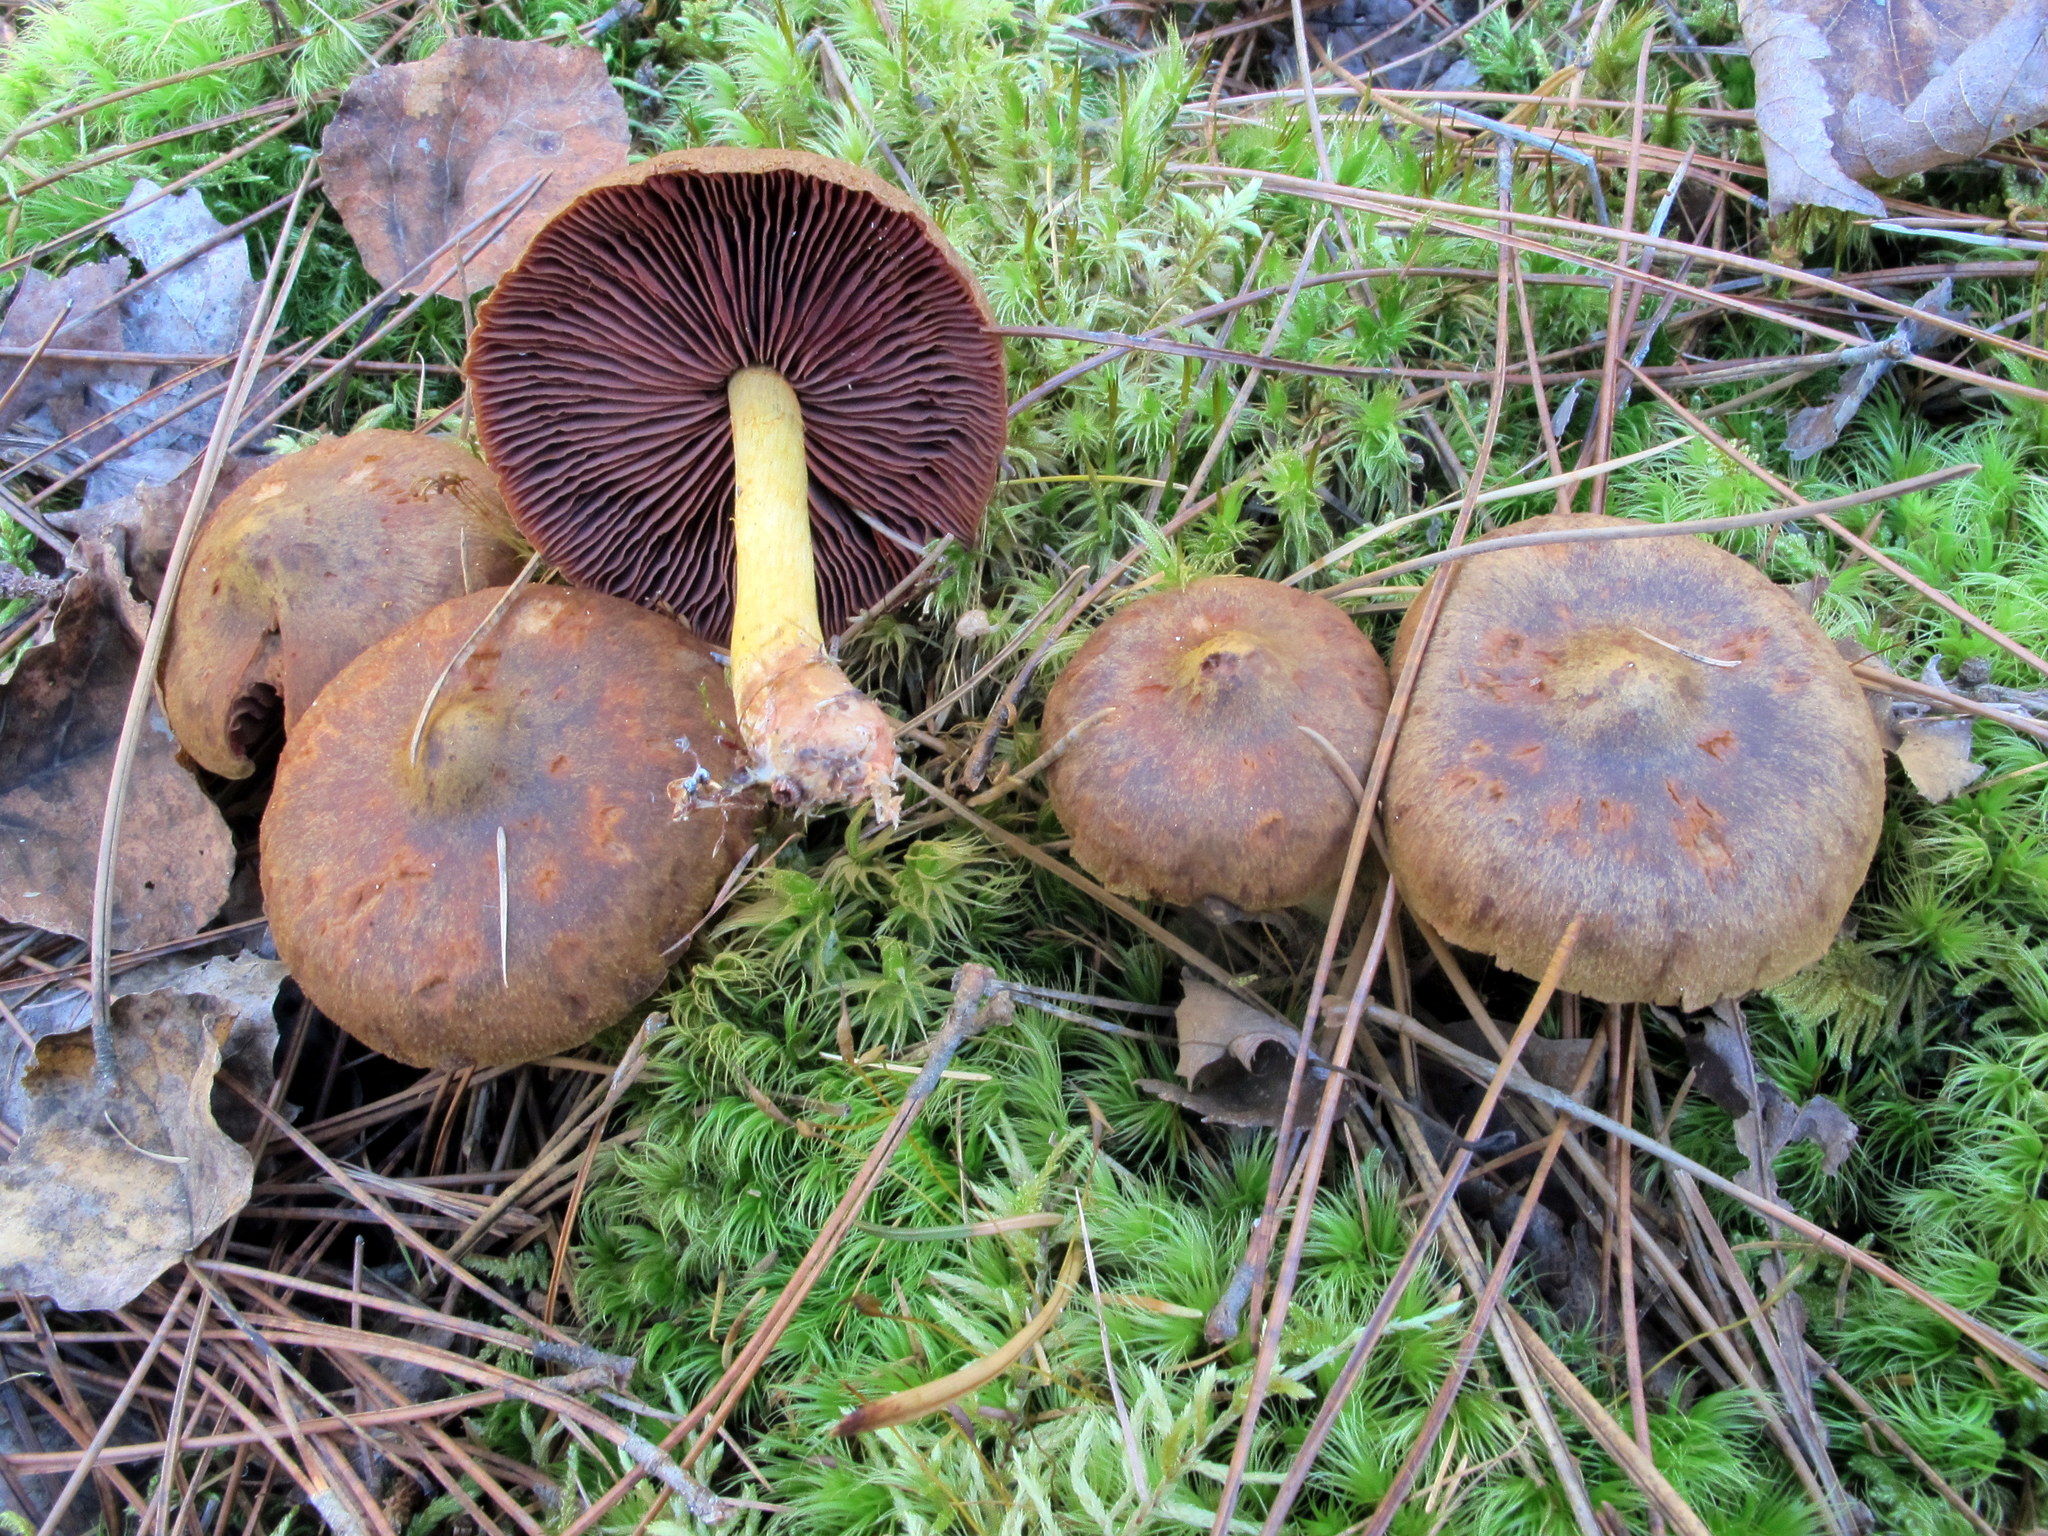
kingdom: Fungi
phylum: Basidiomycota
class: Agaricomycetes
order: Agaricales
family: Cortinariaceae
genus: Cortinarius
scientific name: Cortinarius semisanguineus
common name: Surprise webcap
